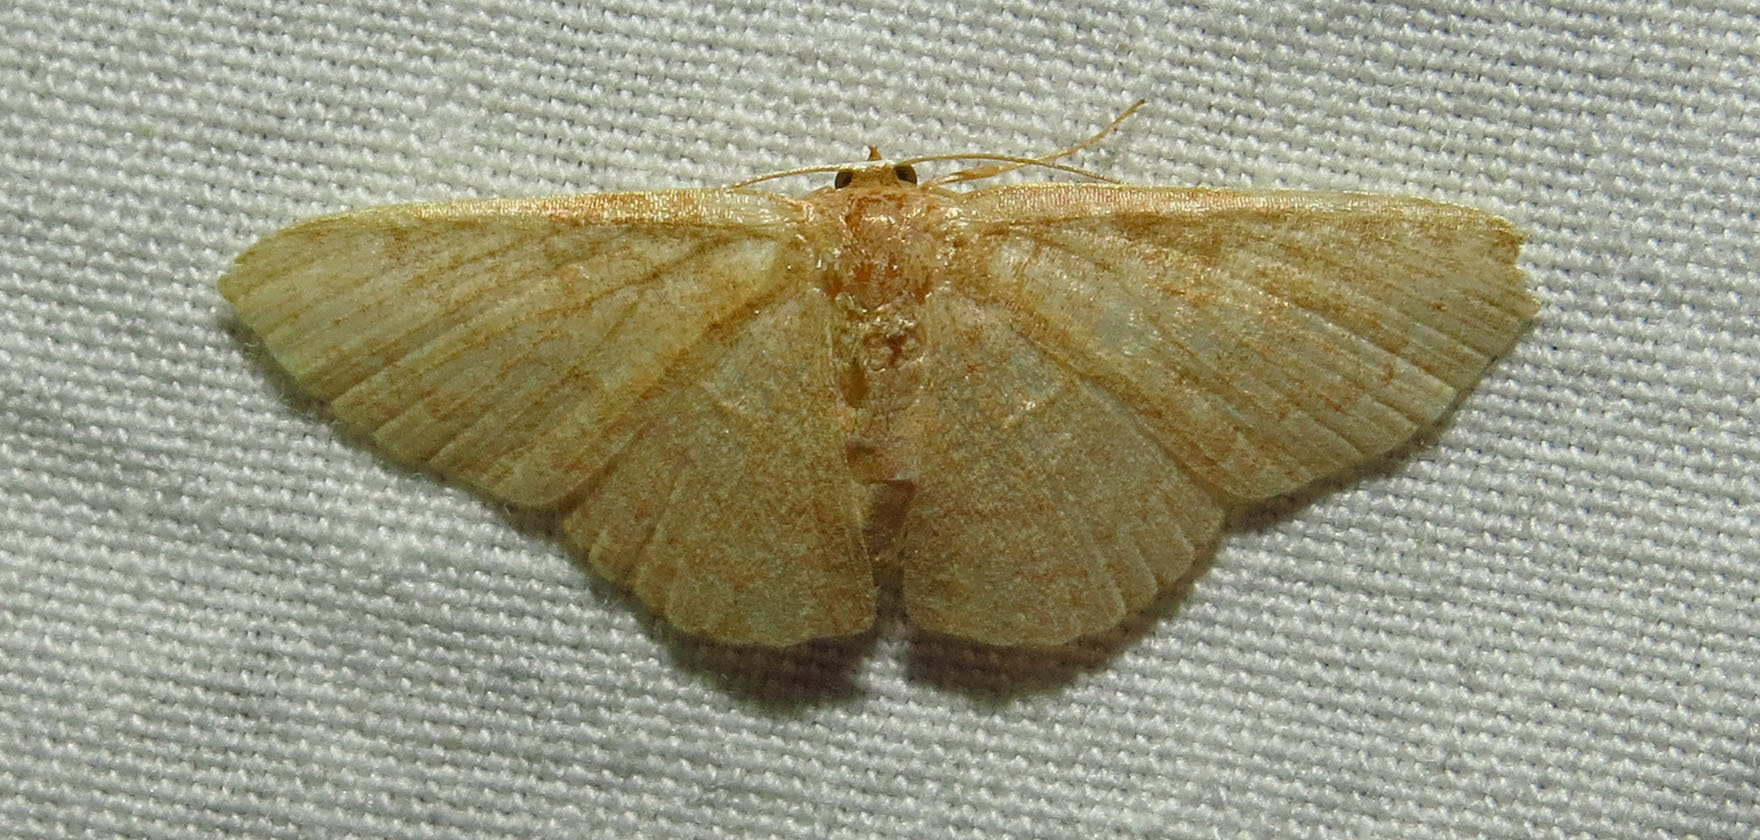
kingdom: Animalia
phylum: Arthropoda
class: Insecta
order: Lepidoptera
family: Geometridae
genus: Pleuroprucha
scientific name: Pleuroprucha insulsaria
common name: Common tan wave
